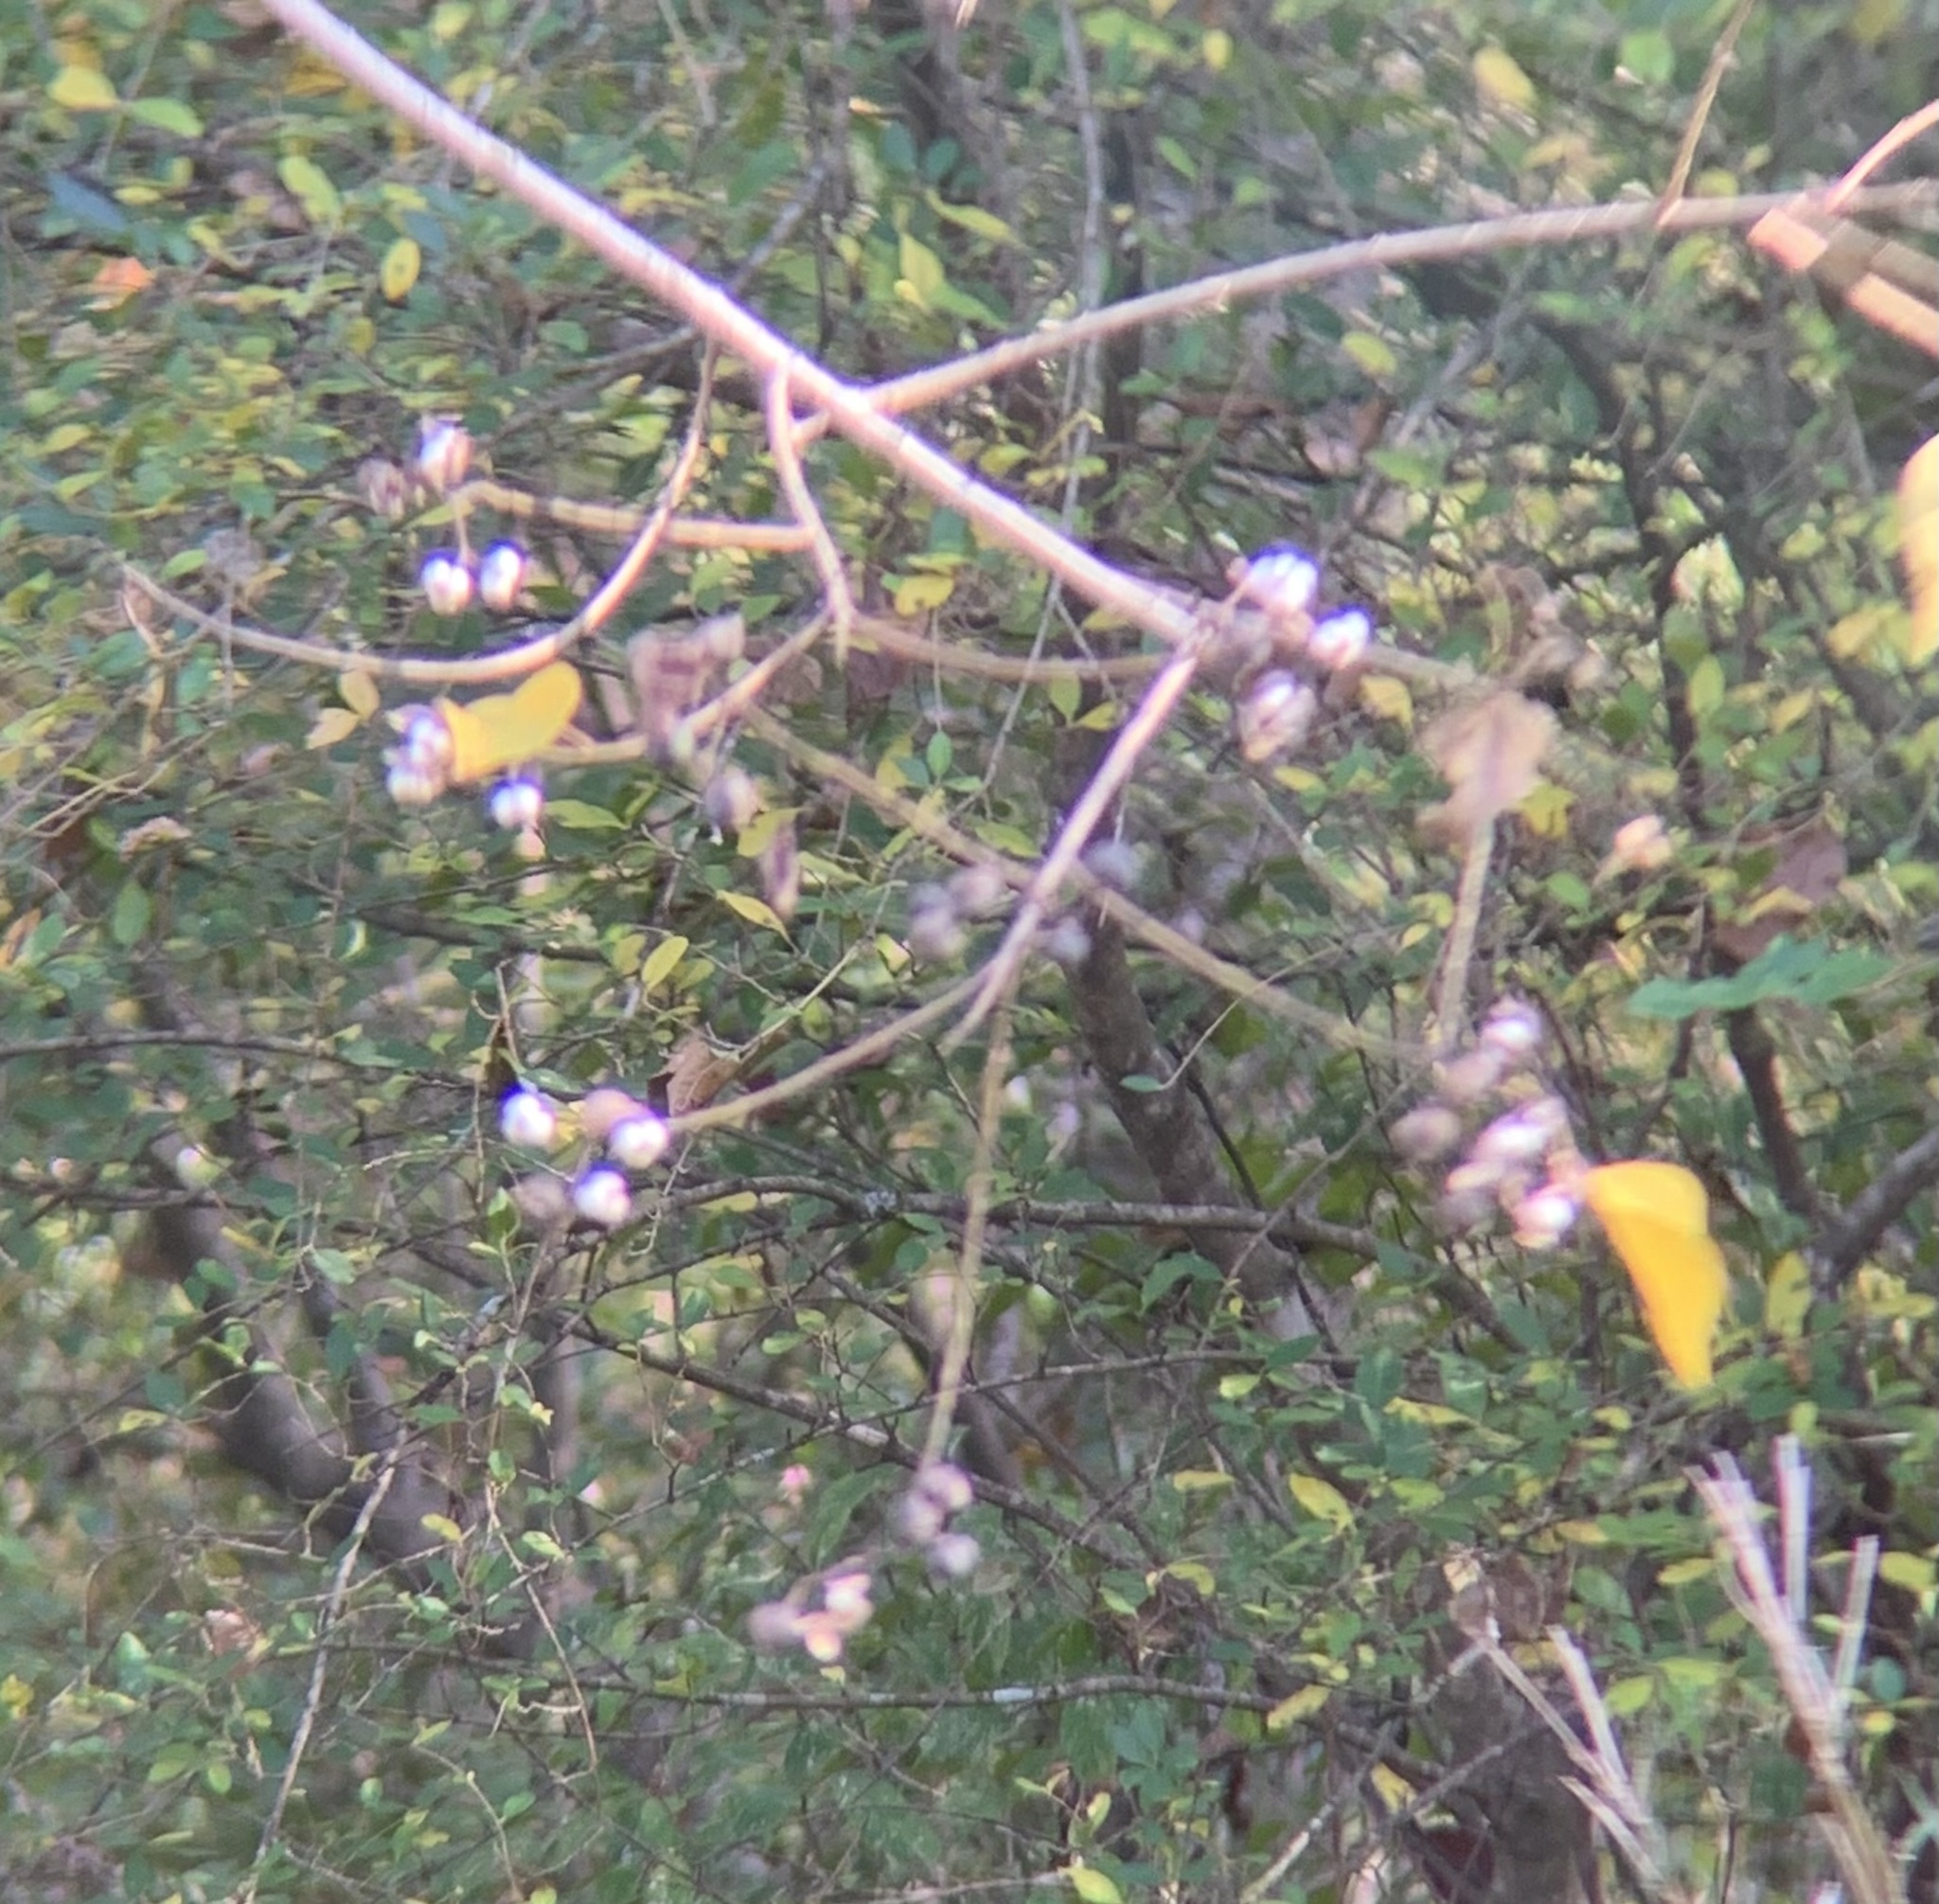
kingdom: Plantae
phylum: Tracheophyta
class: Magnoliopsida
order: Malpighiales
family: Euphorbiaceae
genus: Triadica
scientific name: Triadica sebifera
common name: Chinese tallow
